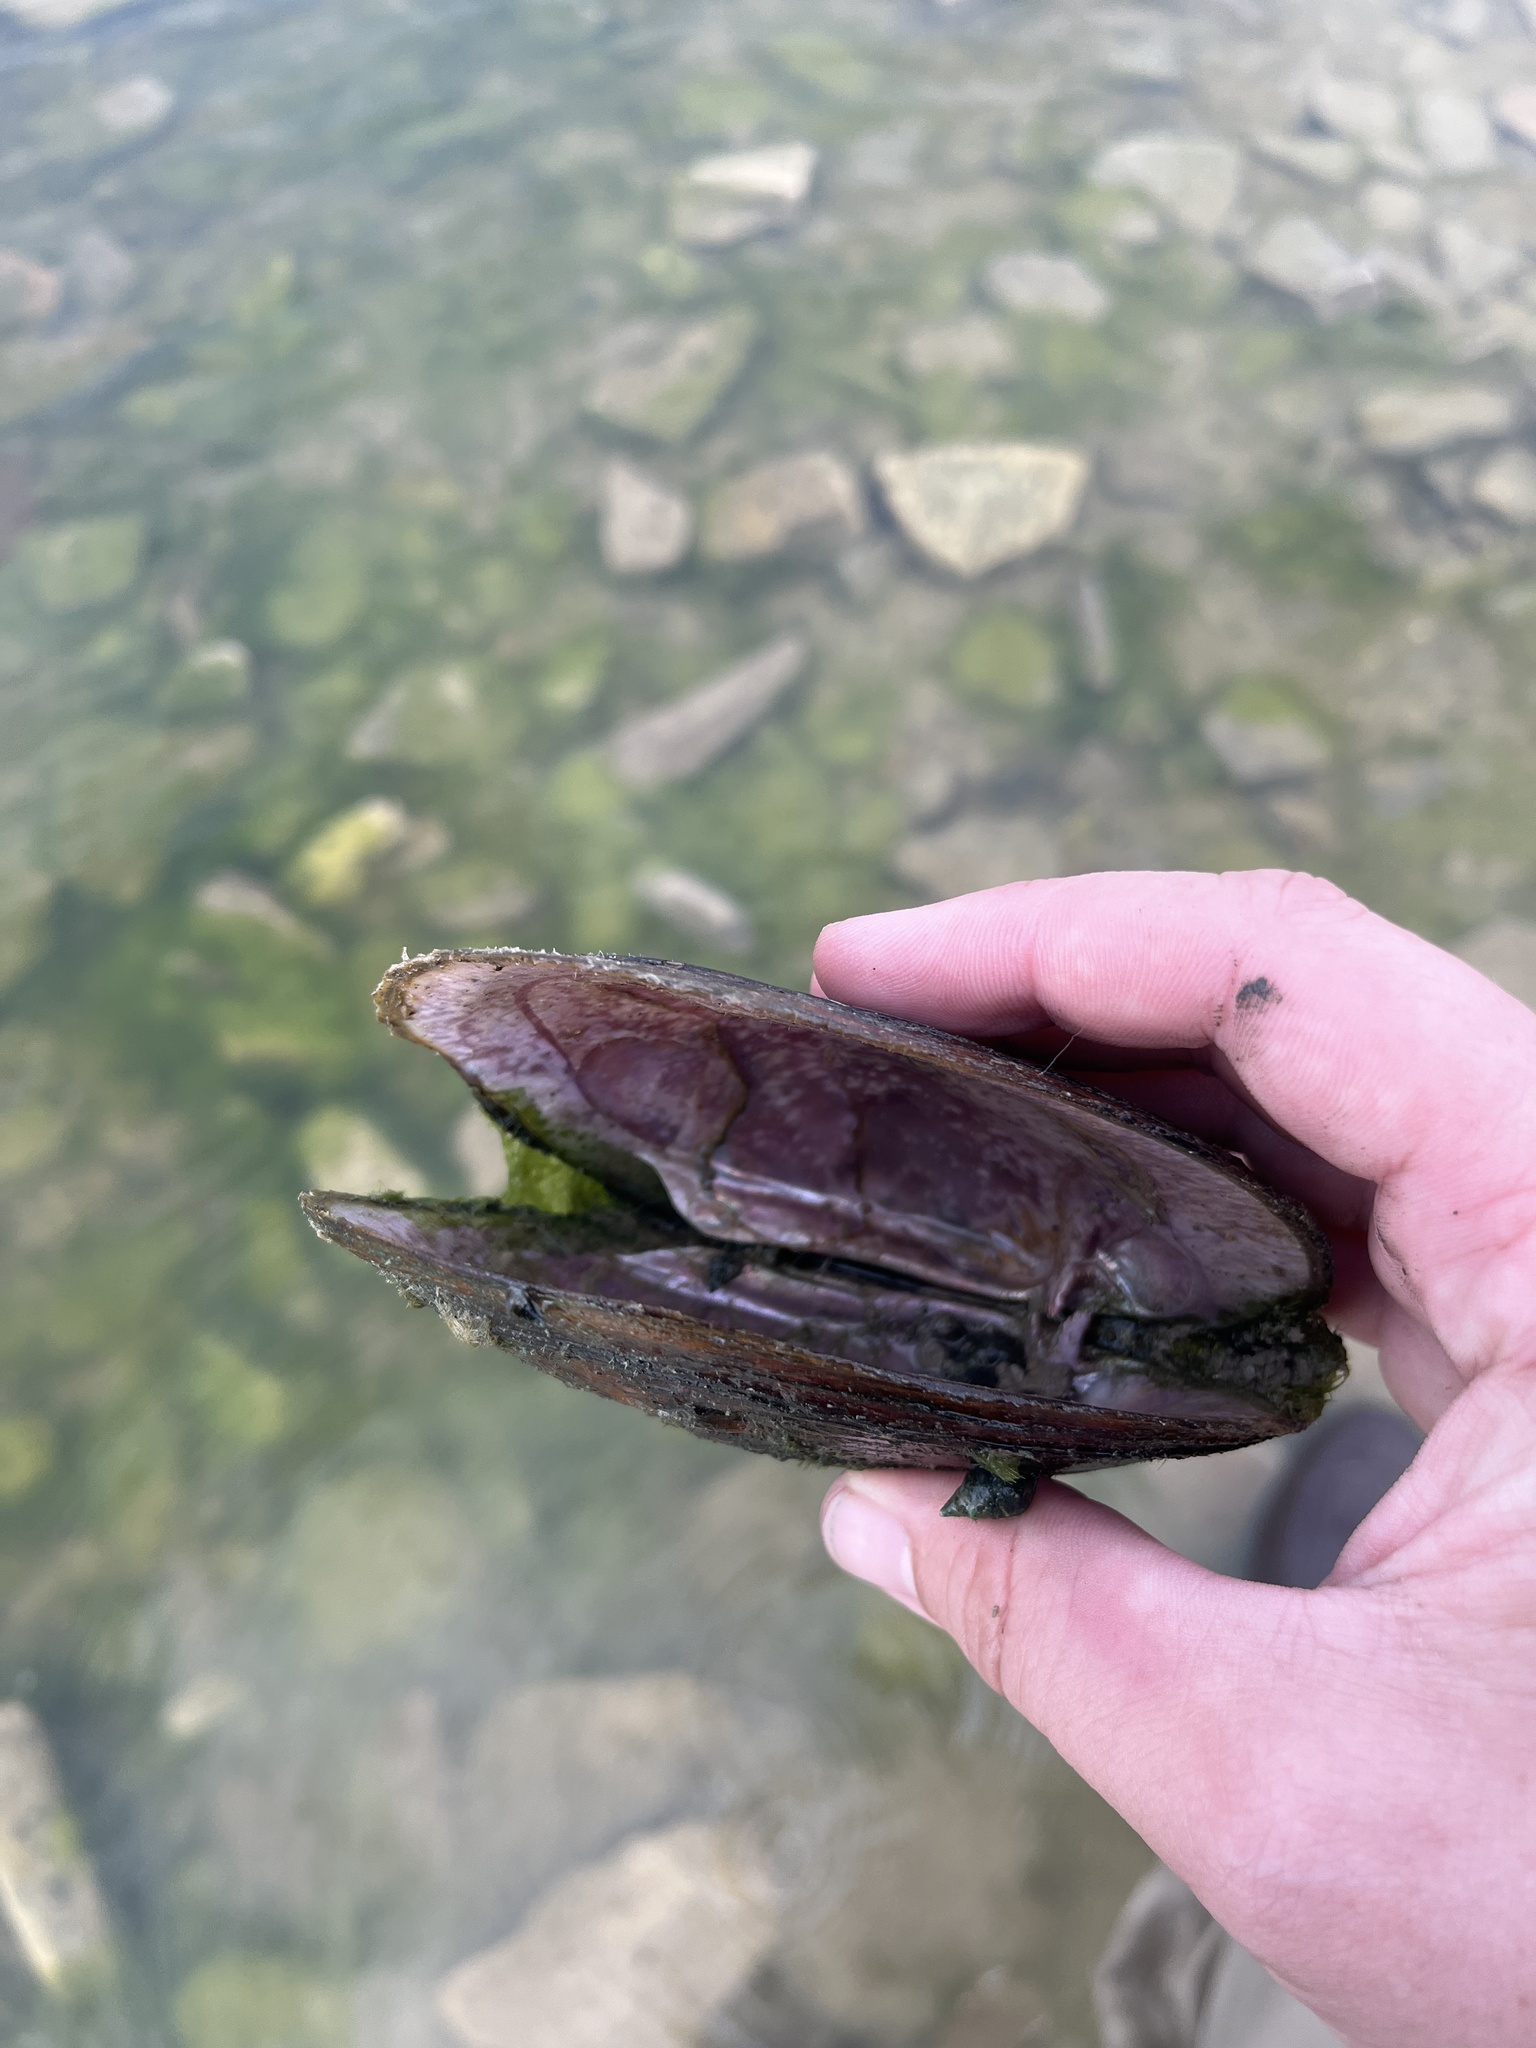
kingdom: Animalia
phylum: Mollusca
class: Bivalvia
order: Unionida
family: Unionidae
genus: Potamilus
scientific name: Potamilus alatus
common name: Pink heelsplitter
